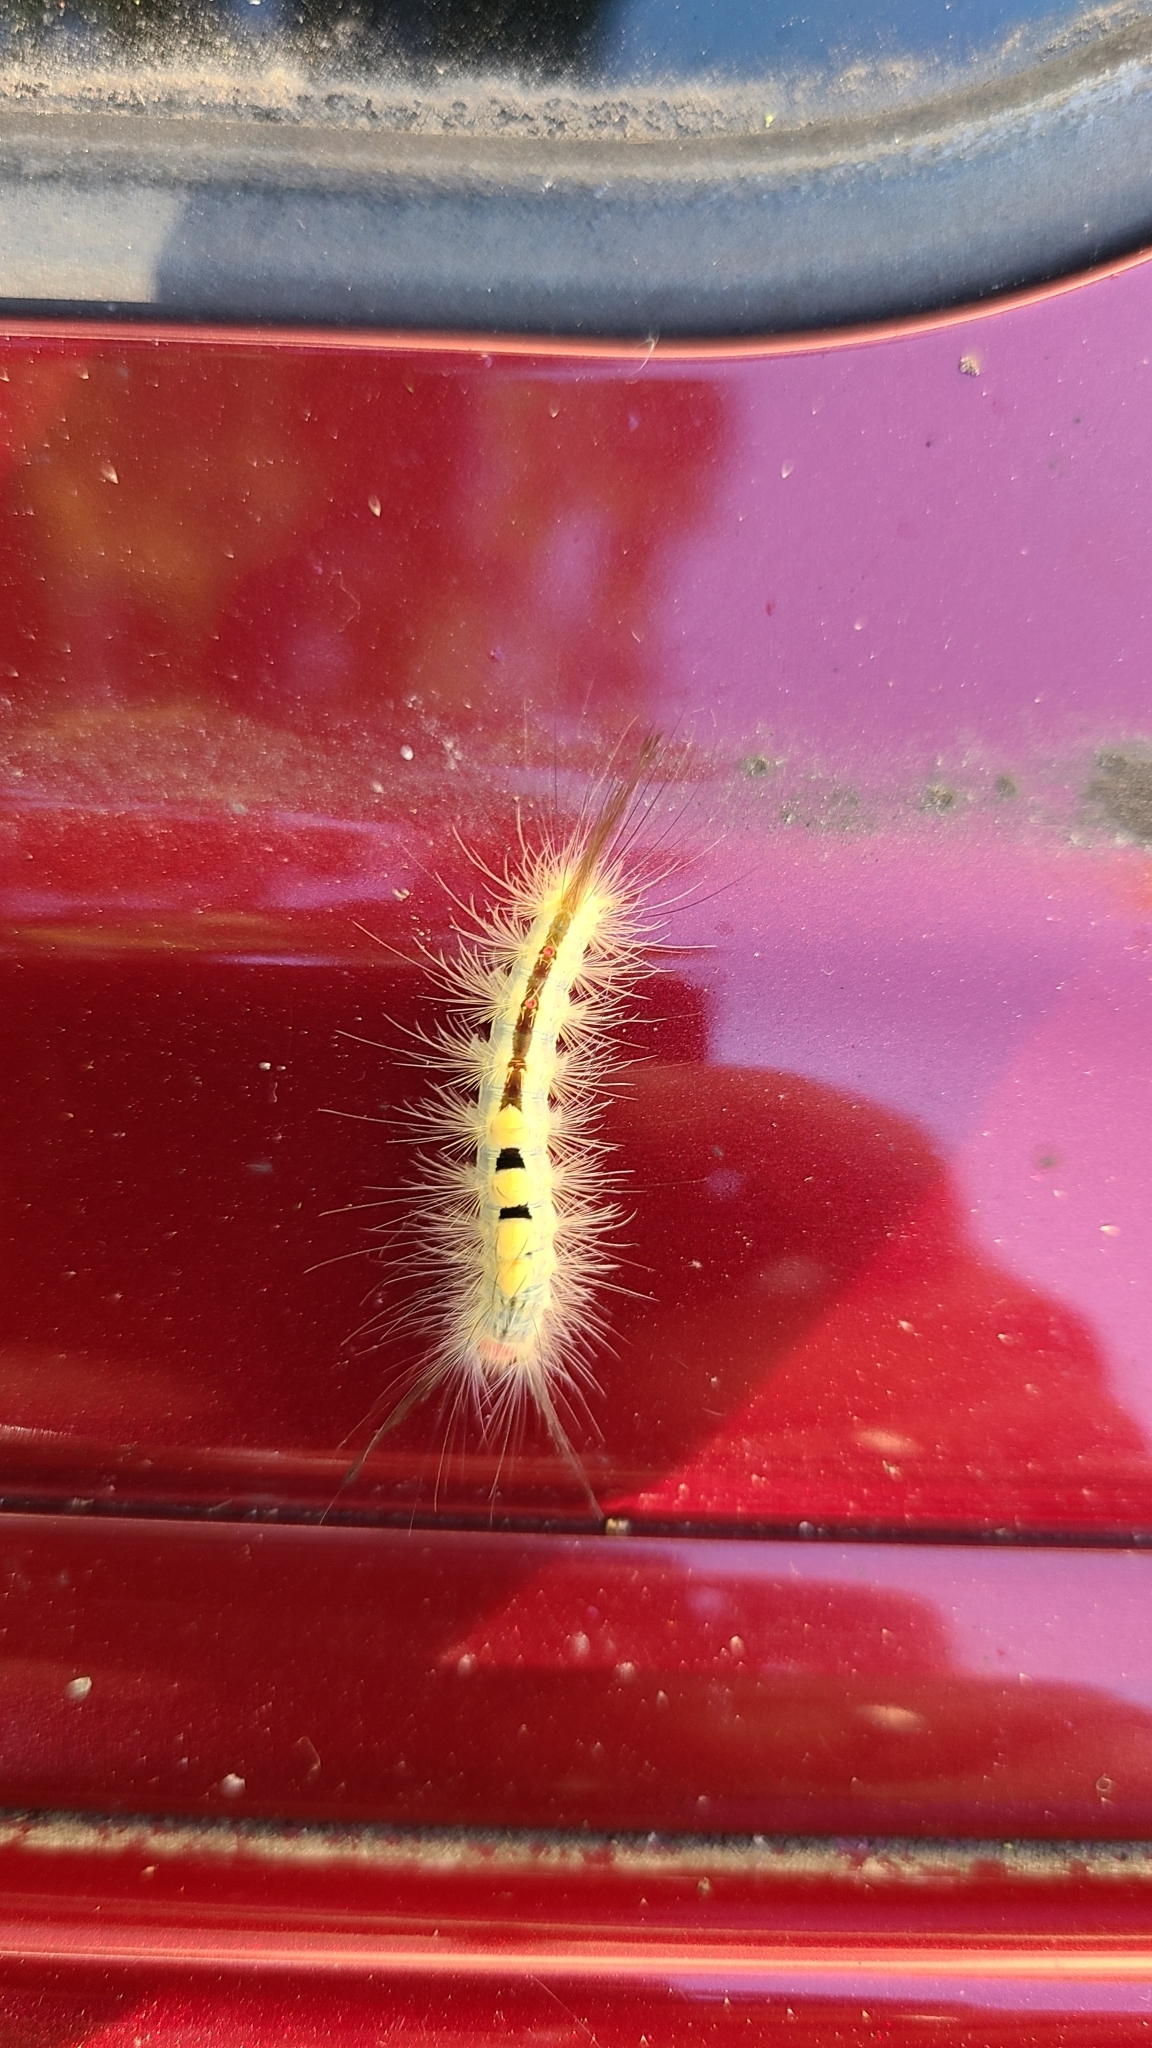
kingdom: Animalia
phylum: Arthropoda
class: Insecta
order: Lepidoptera
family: Erebidae
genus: Orgyia
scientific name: Orgyia leucostigma
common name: White-marked tussock moth
